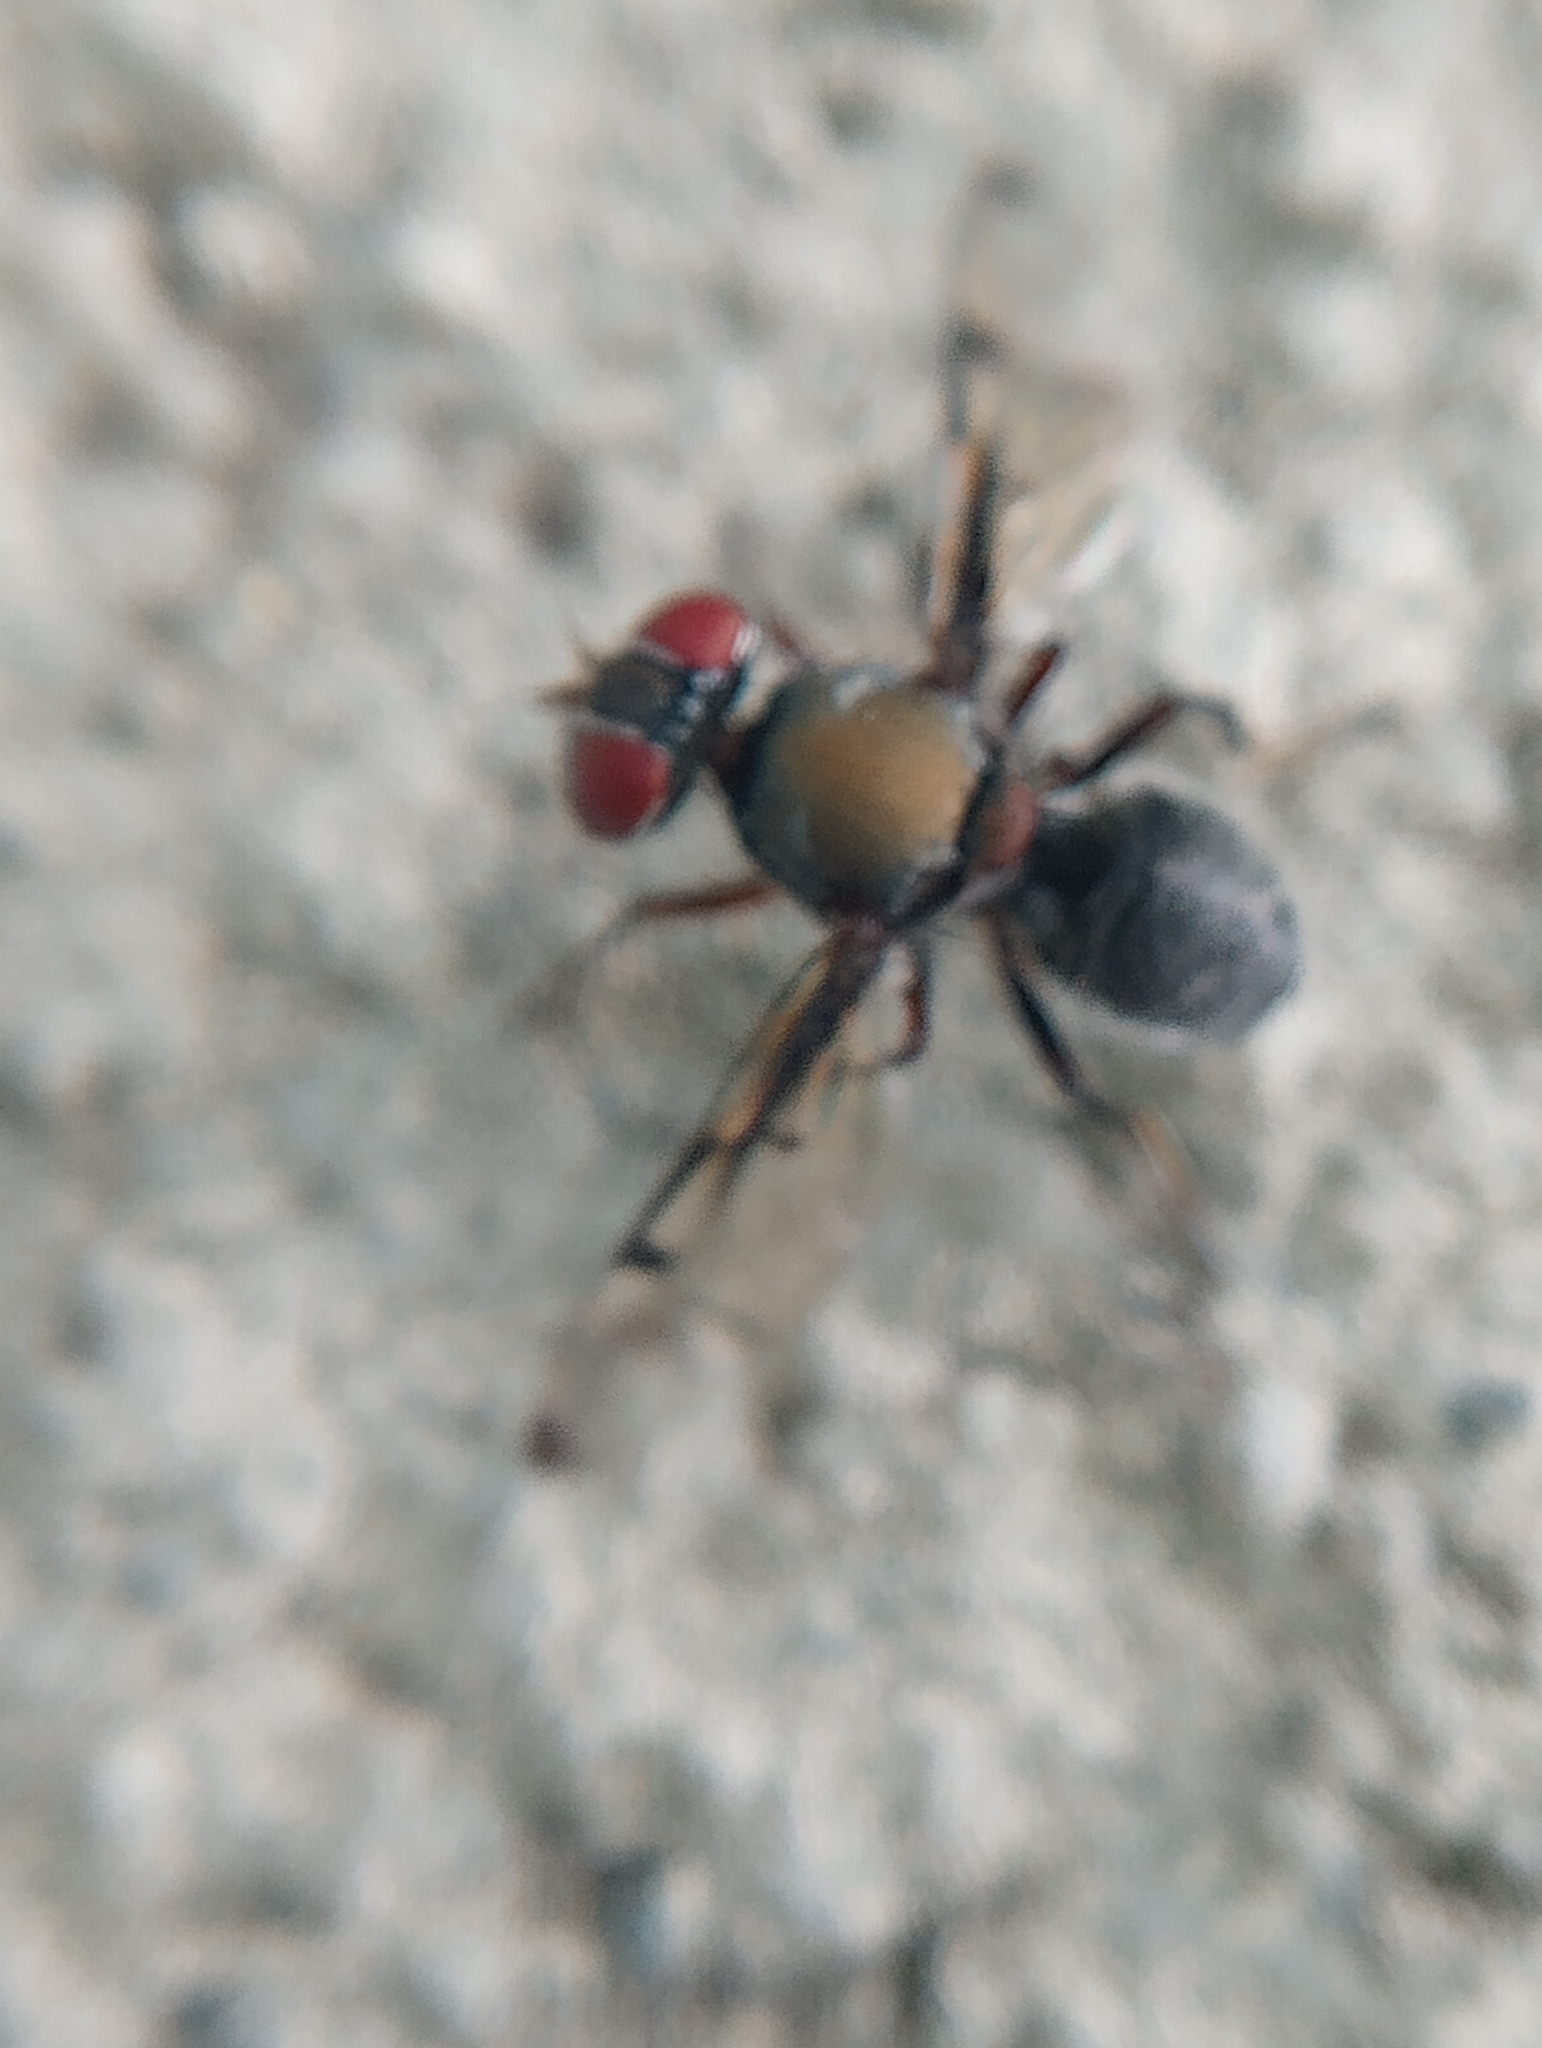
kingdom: Animalia
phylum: Arthropoda
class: Insecta
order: Diptera
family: Platystomatidae
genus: Pogonortalis
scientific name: Pogonortalis doclea
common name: Boatman fly
